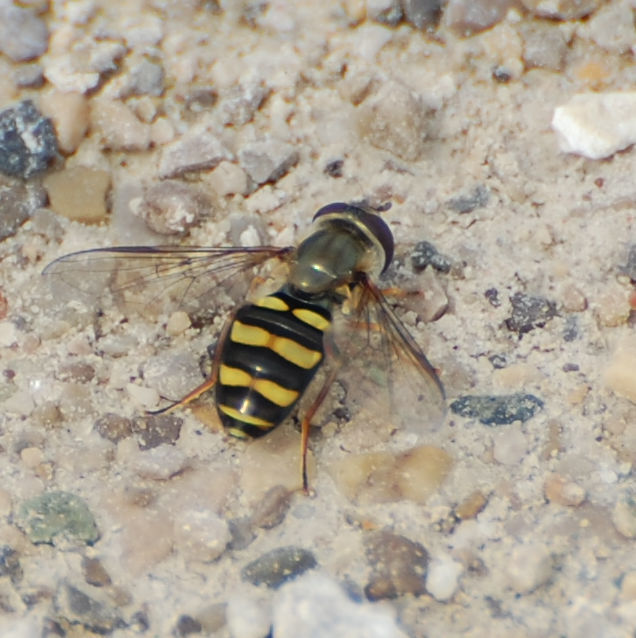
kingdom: Animalia
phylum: Arthropoda
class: Insecta
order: Diptera
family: Syrphidae
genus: Eupeodes
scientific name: Eupeodes
